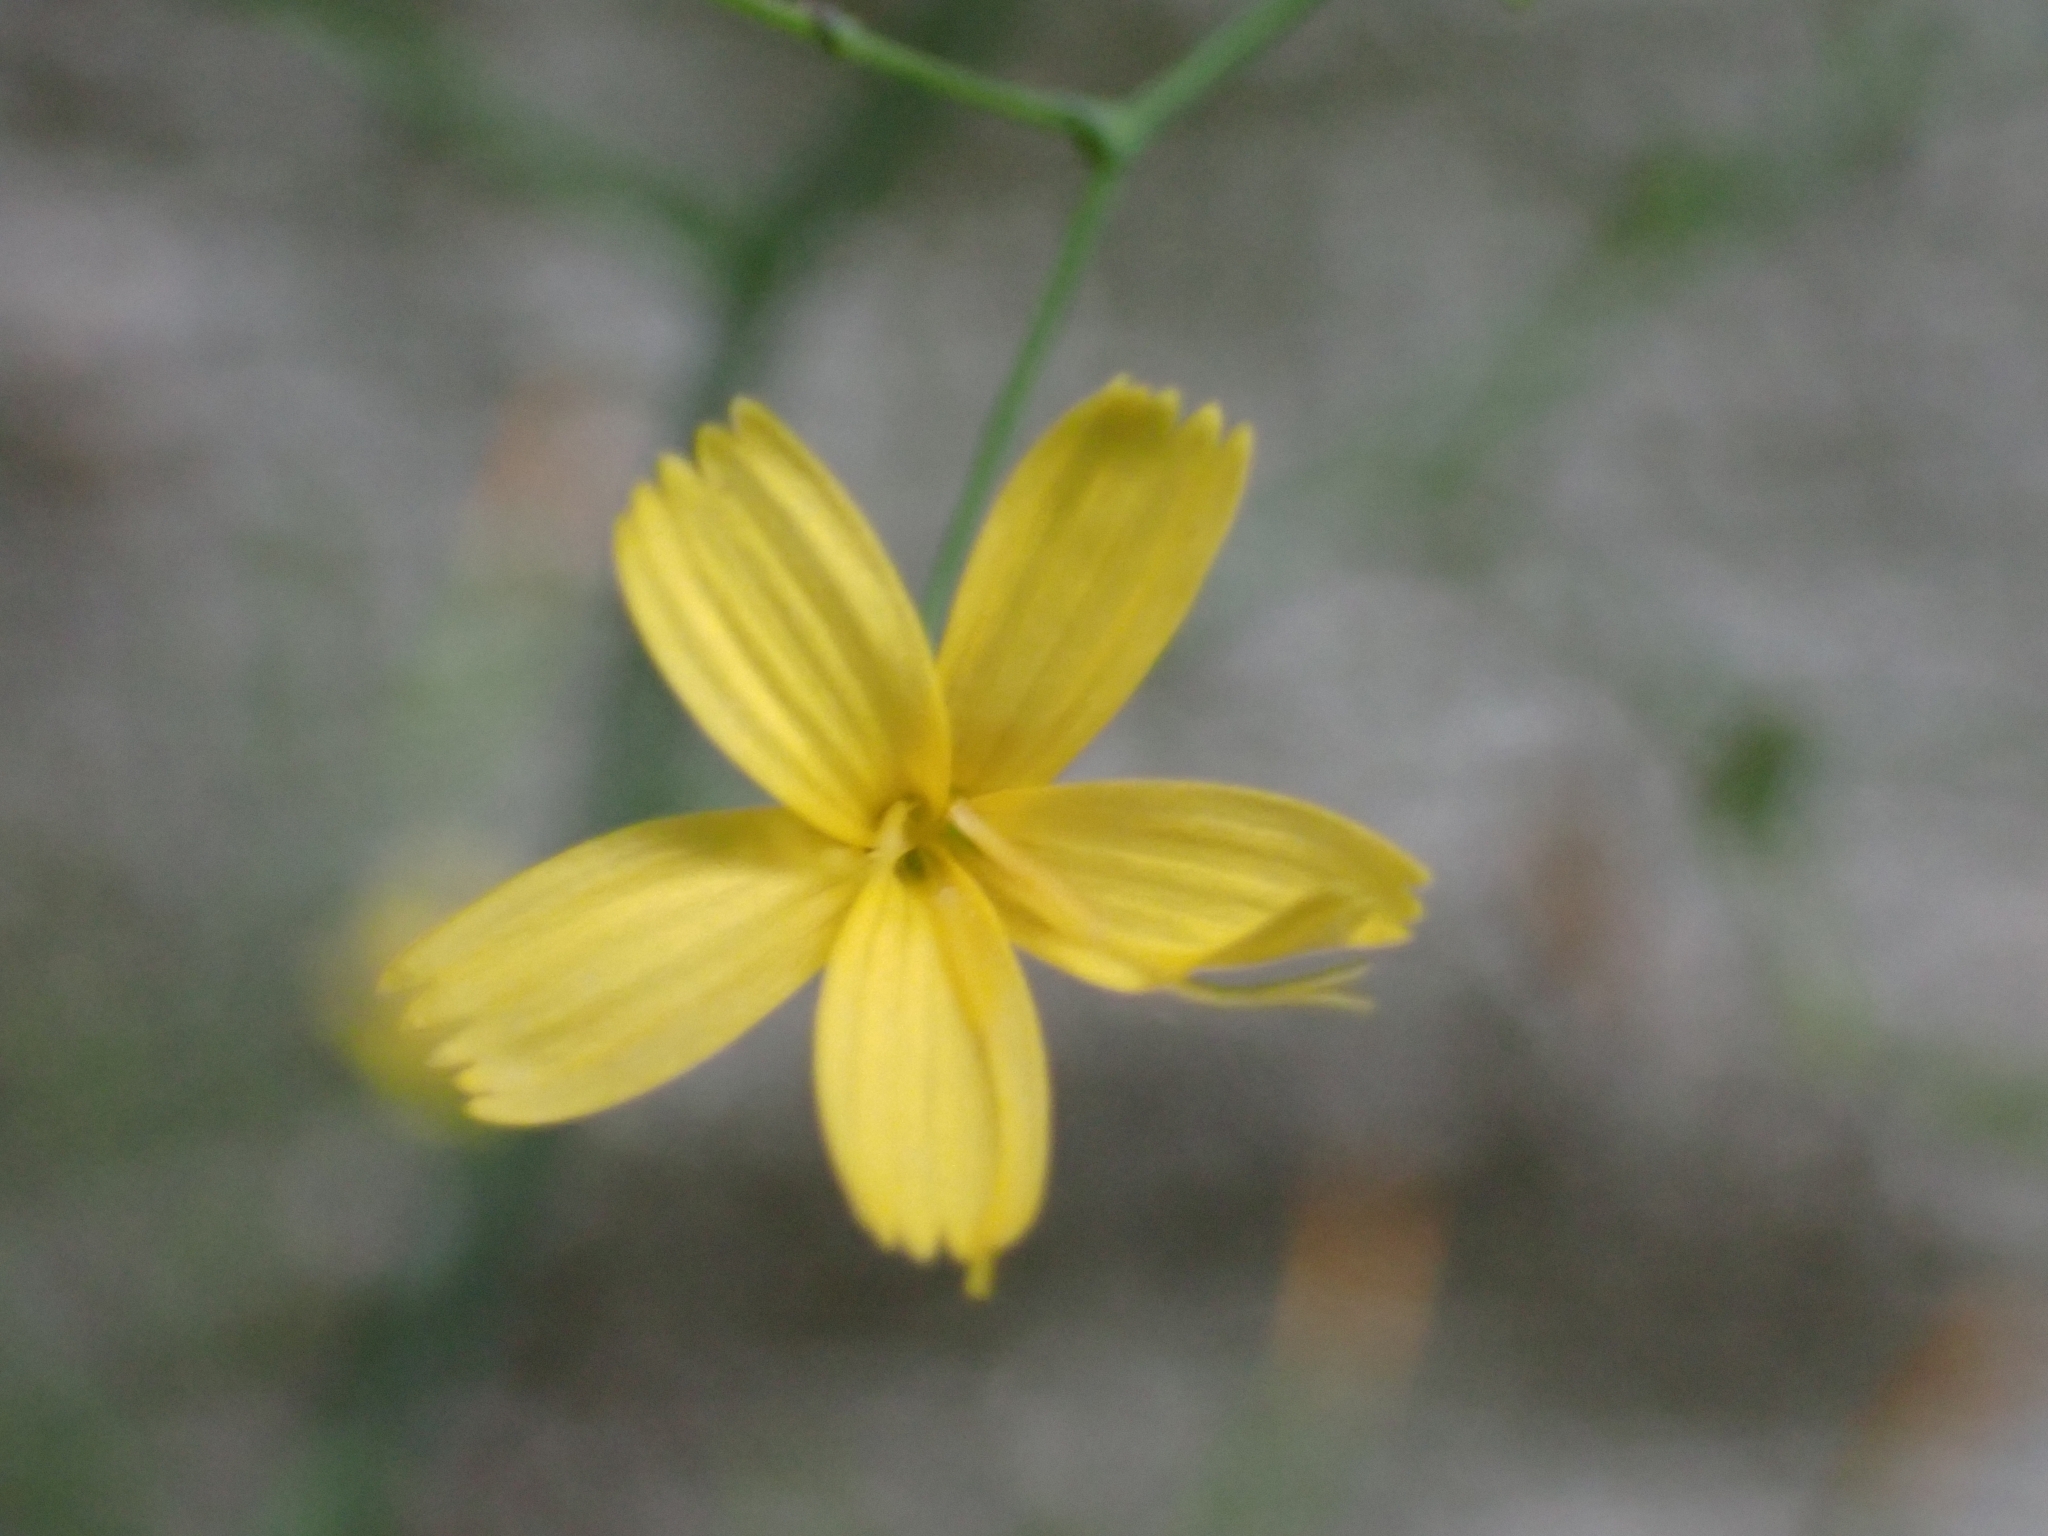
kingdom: Plantae
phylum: Tracheophyta
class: Magnoliopsida
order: Asterales
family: Asteraceae
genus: Mycelis
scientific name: Mycelis muralis
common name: Wall lettuce
